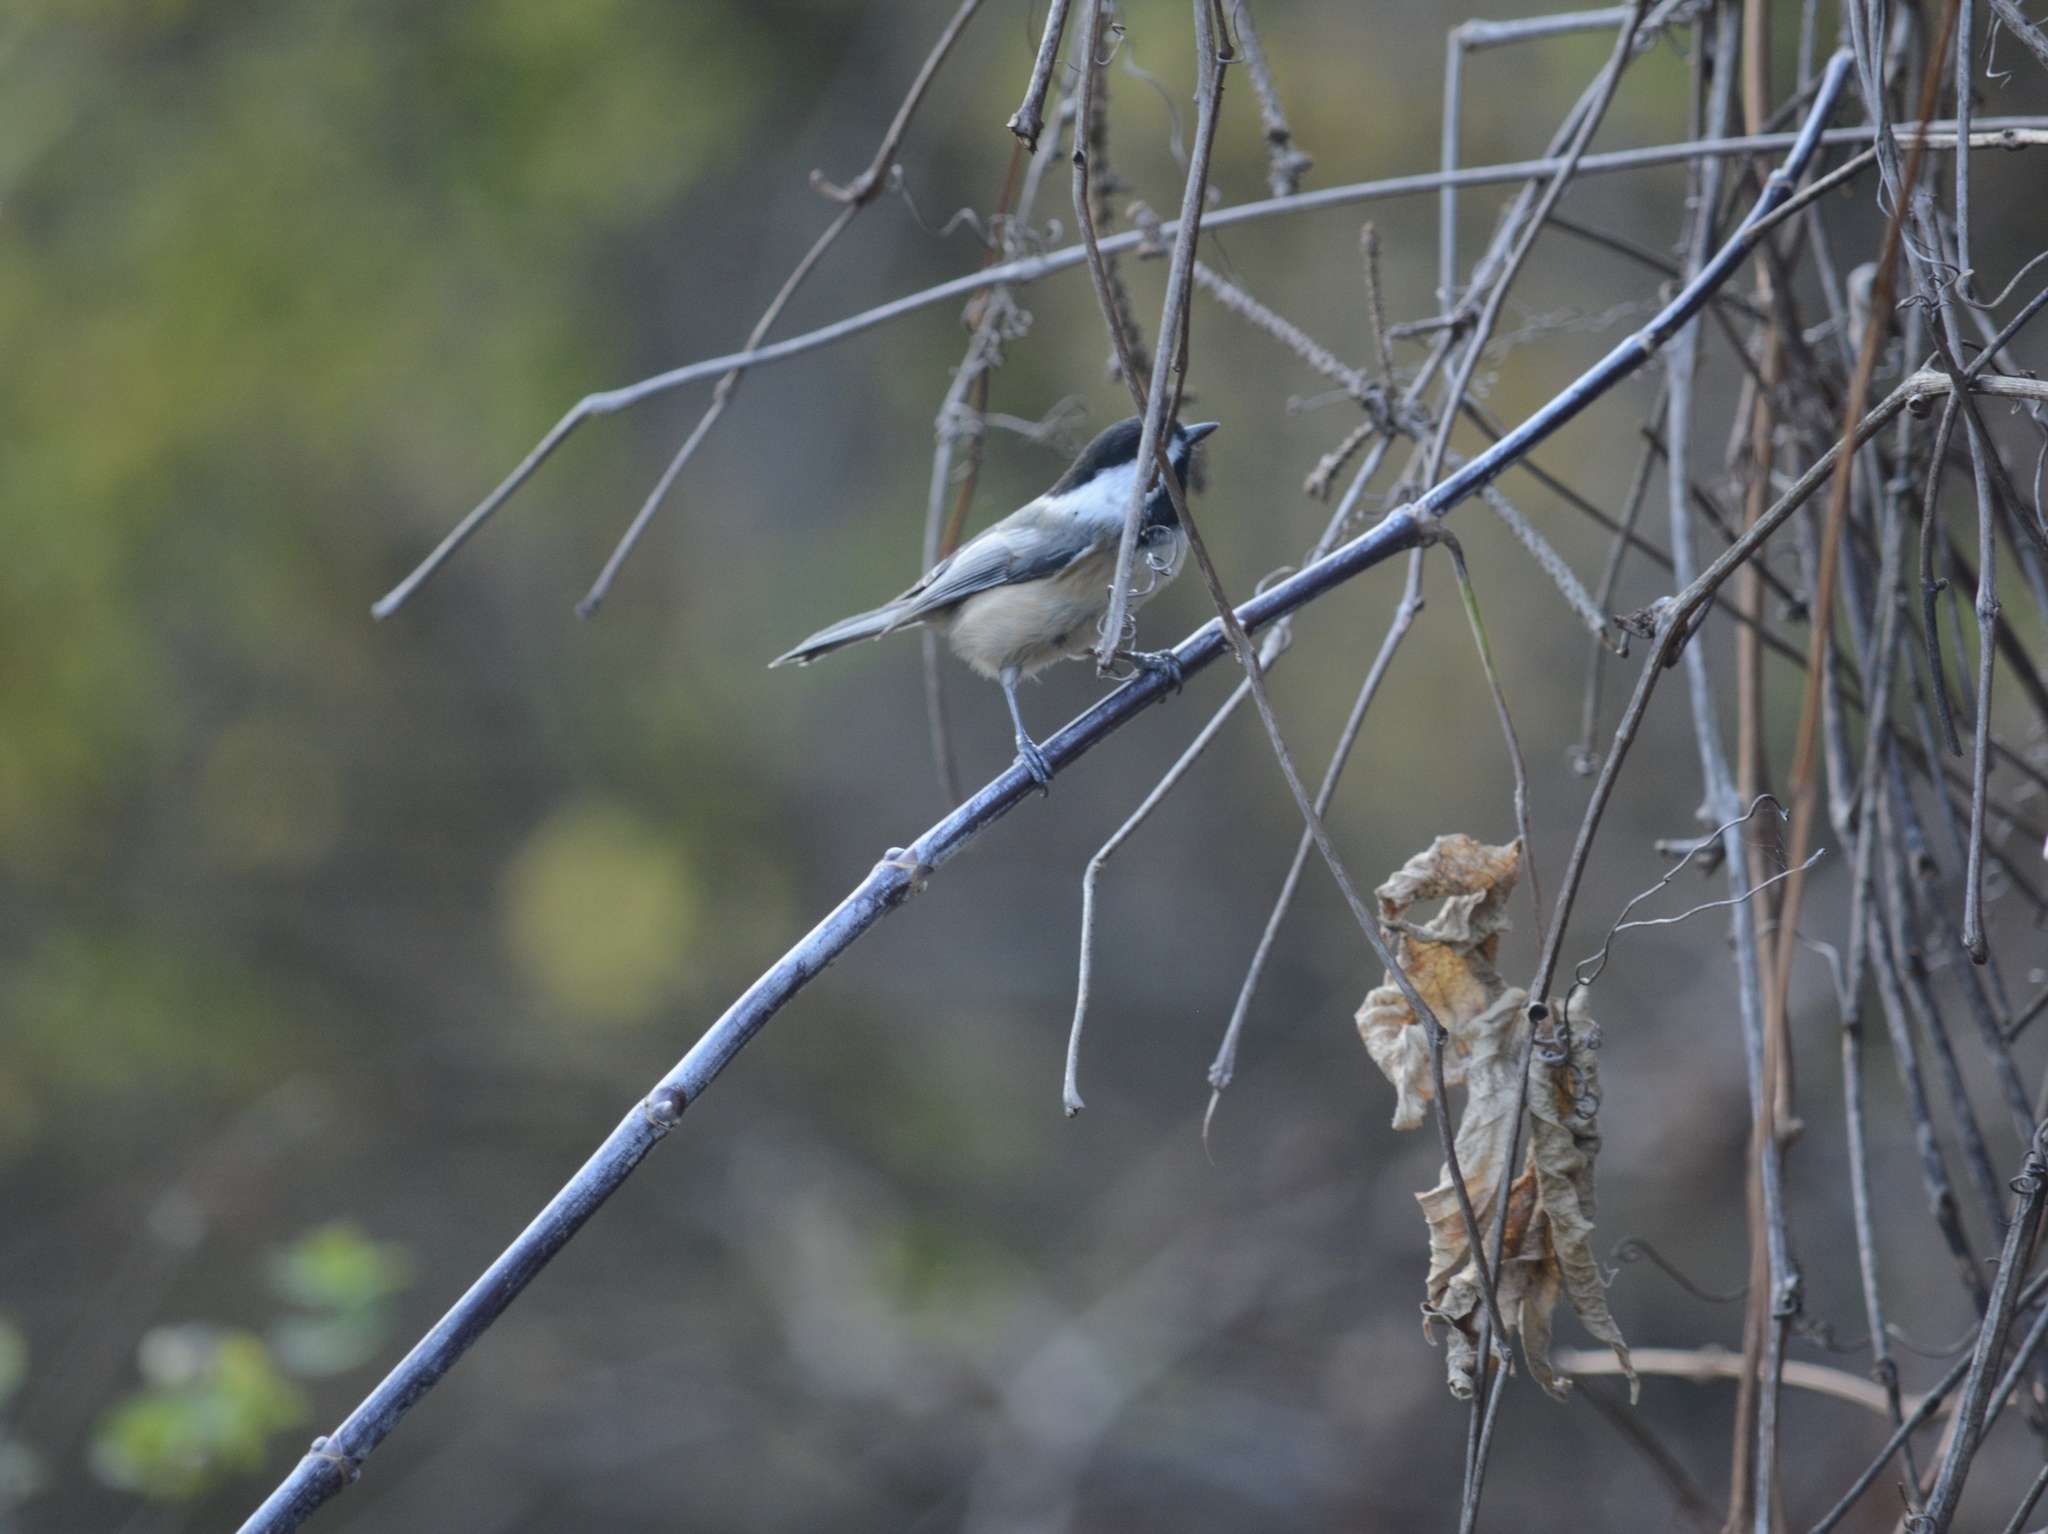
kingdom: Animalia
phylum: Chordata
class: Aves
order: Passeriformes
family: Paridae
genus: Poecile
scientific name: Poecile atricapillus
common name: Black-capped chickadee
